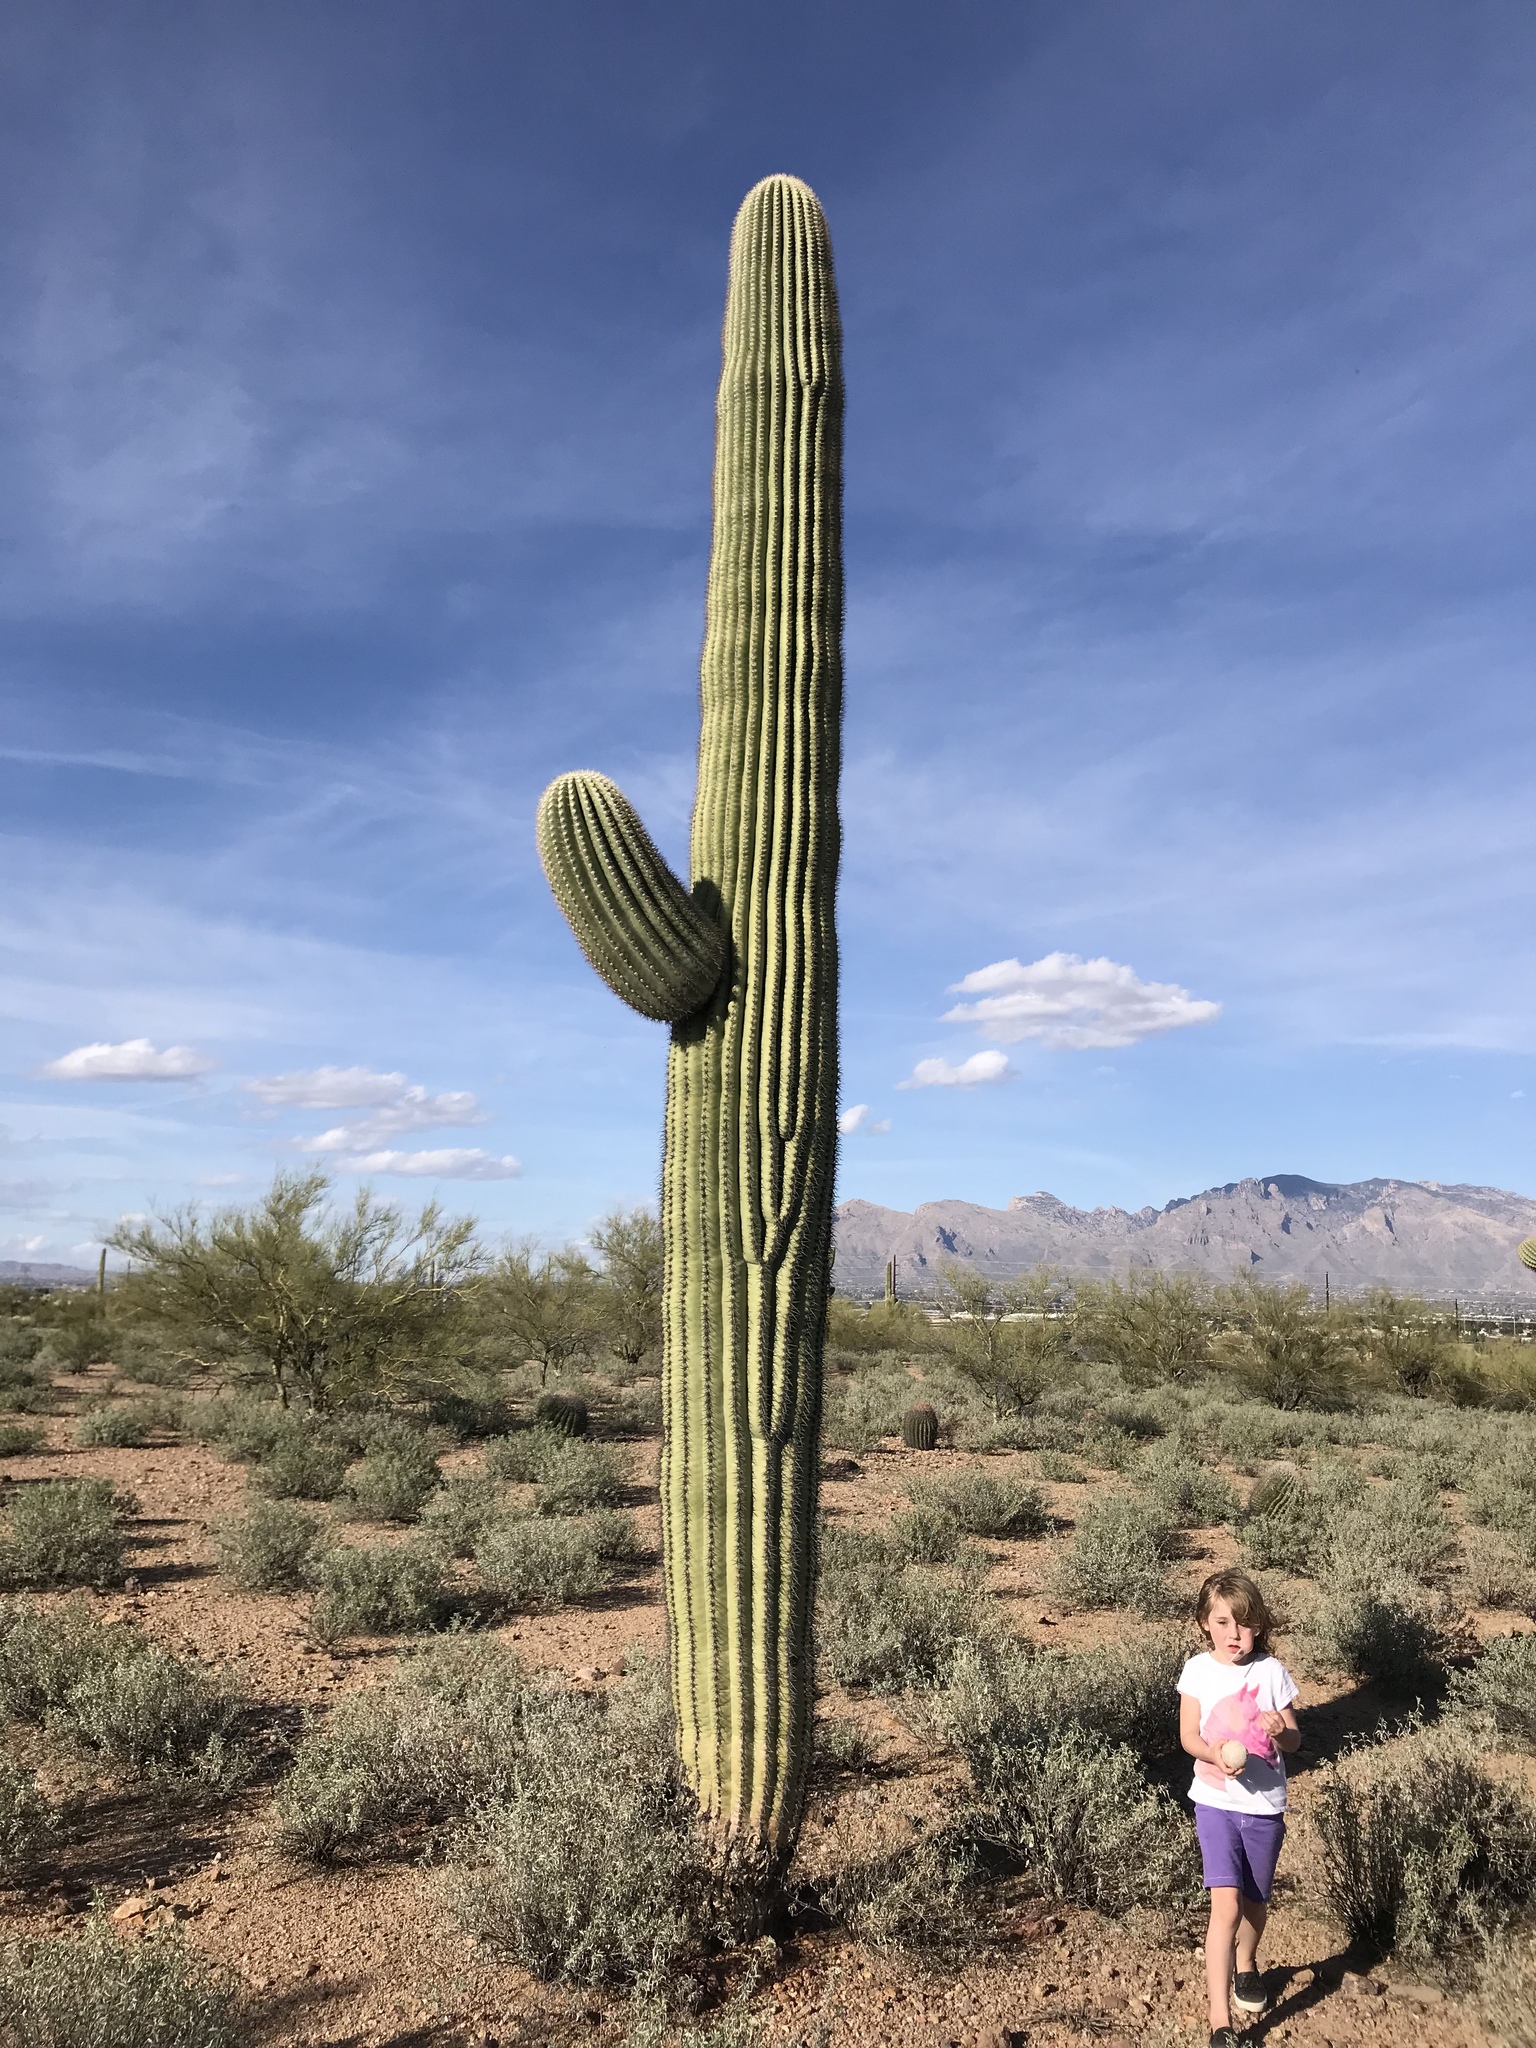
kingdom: Plantae
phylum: Tracheophyta
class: Magnoliopsida
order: Caryophyllales
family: Cactaceae
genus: Carnegiea
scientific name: Carnegiea gigantea
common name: Saguaro
